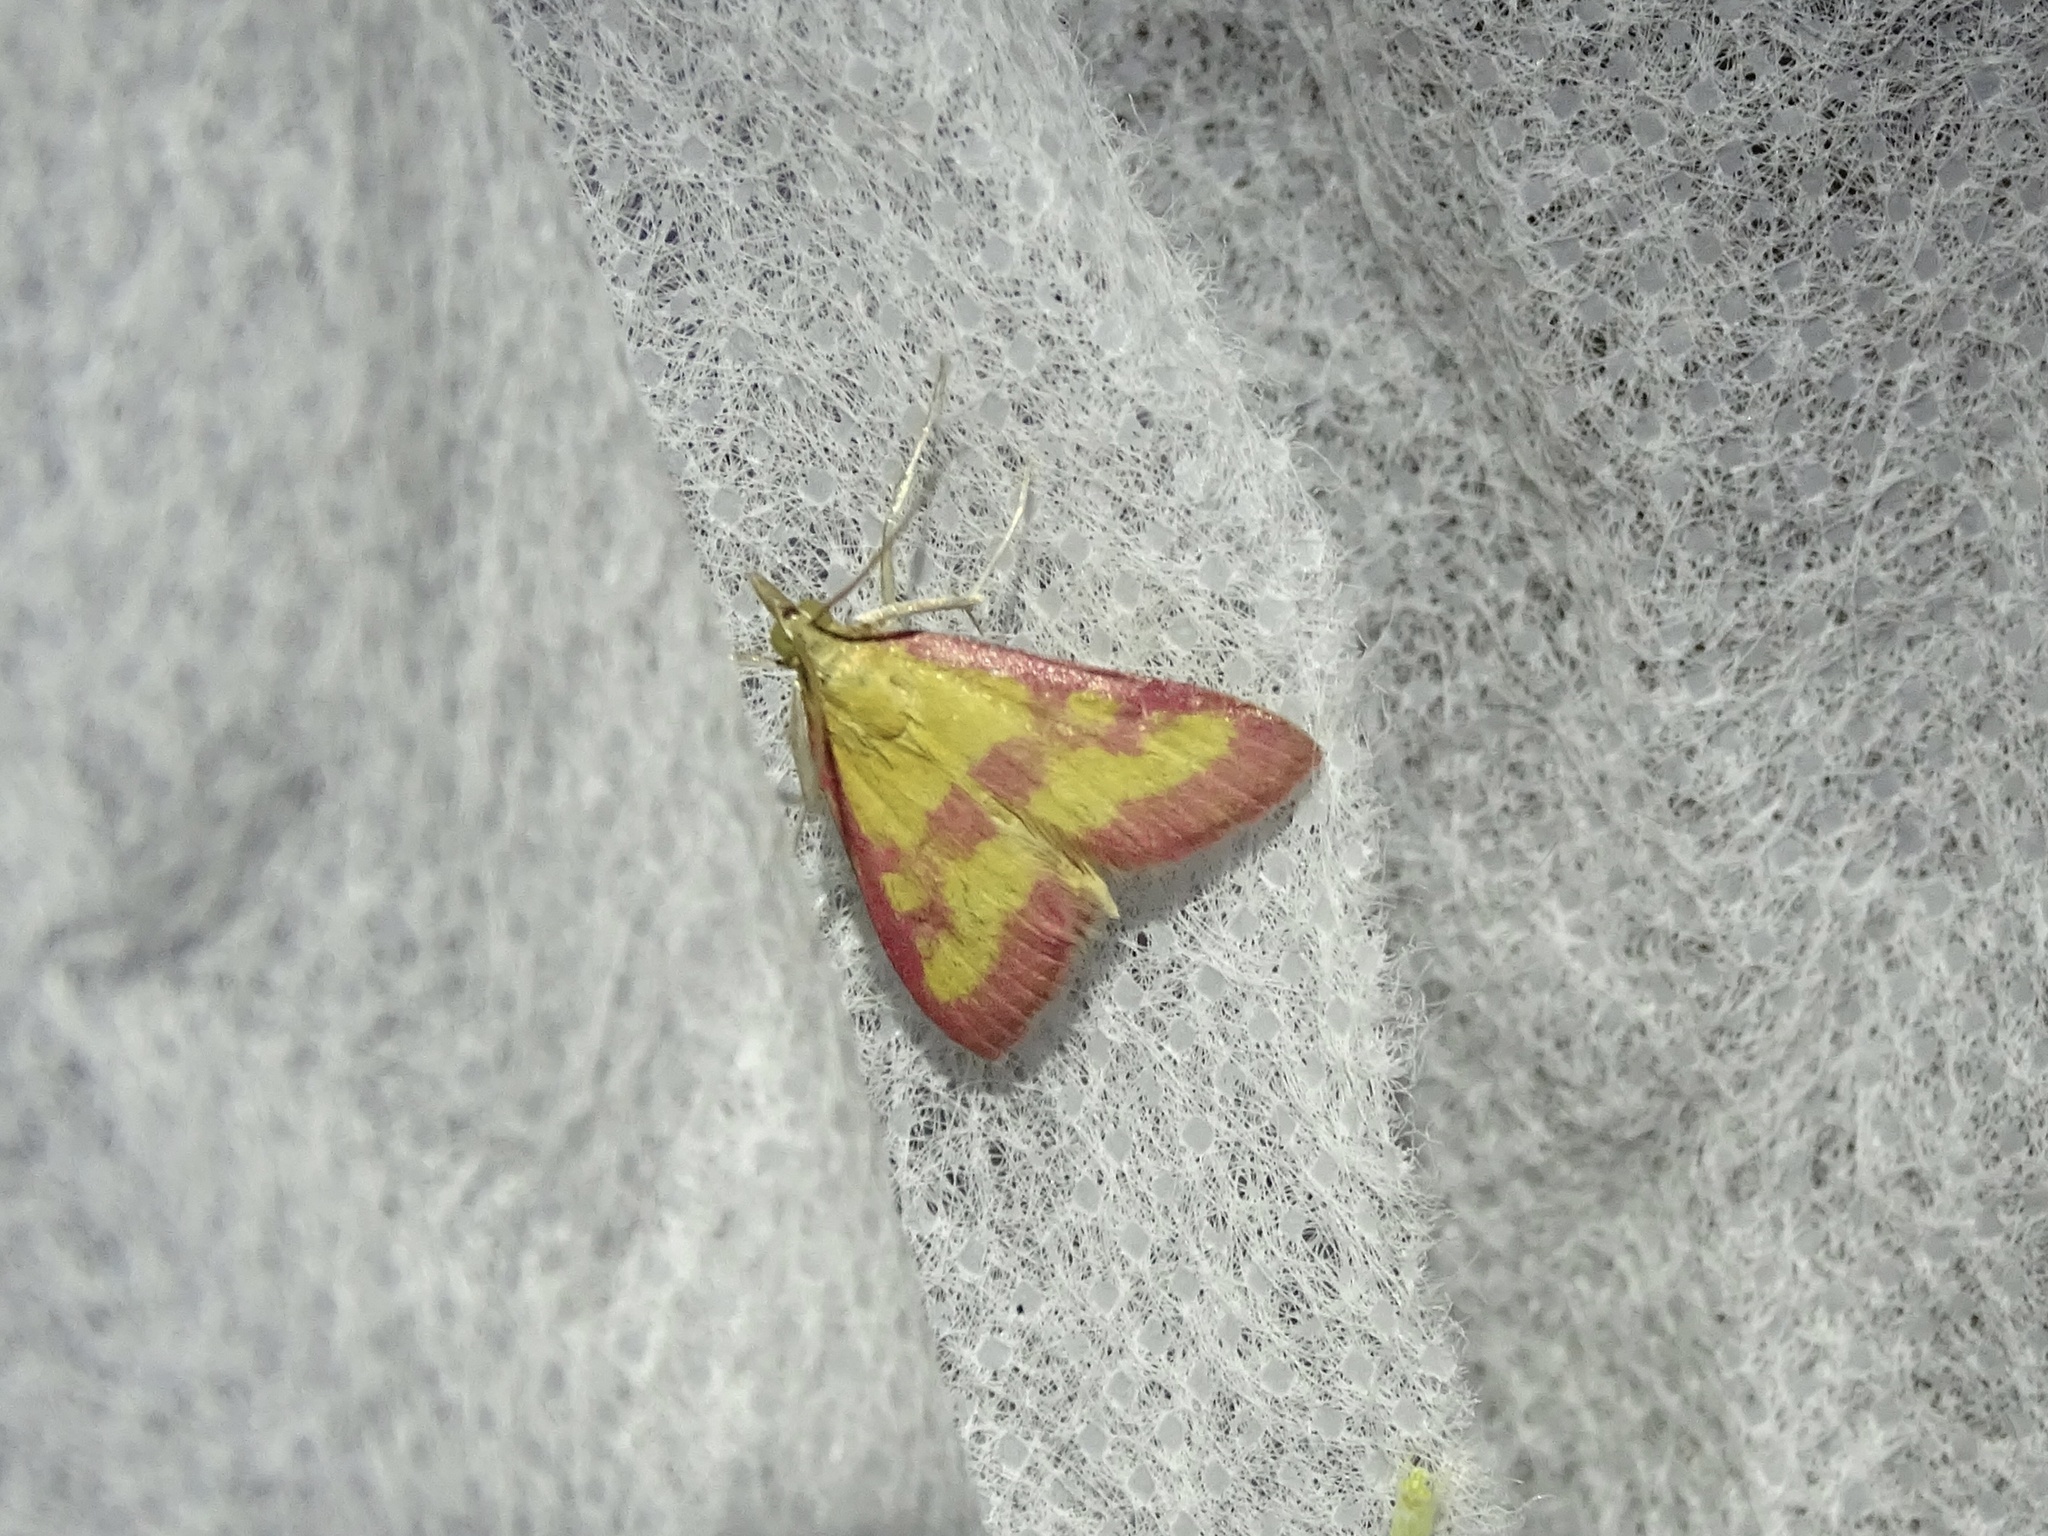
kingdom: Animalia
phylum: Arthropoda
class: Insecta
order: Lepidoptera
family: Crambidae
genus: Pyrausta
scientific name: Pyrausta laticlavia
